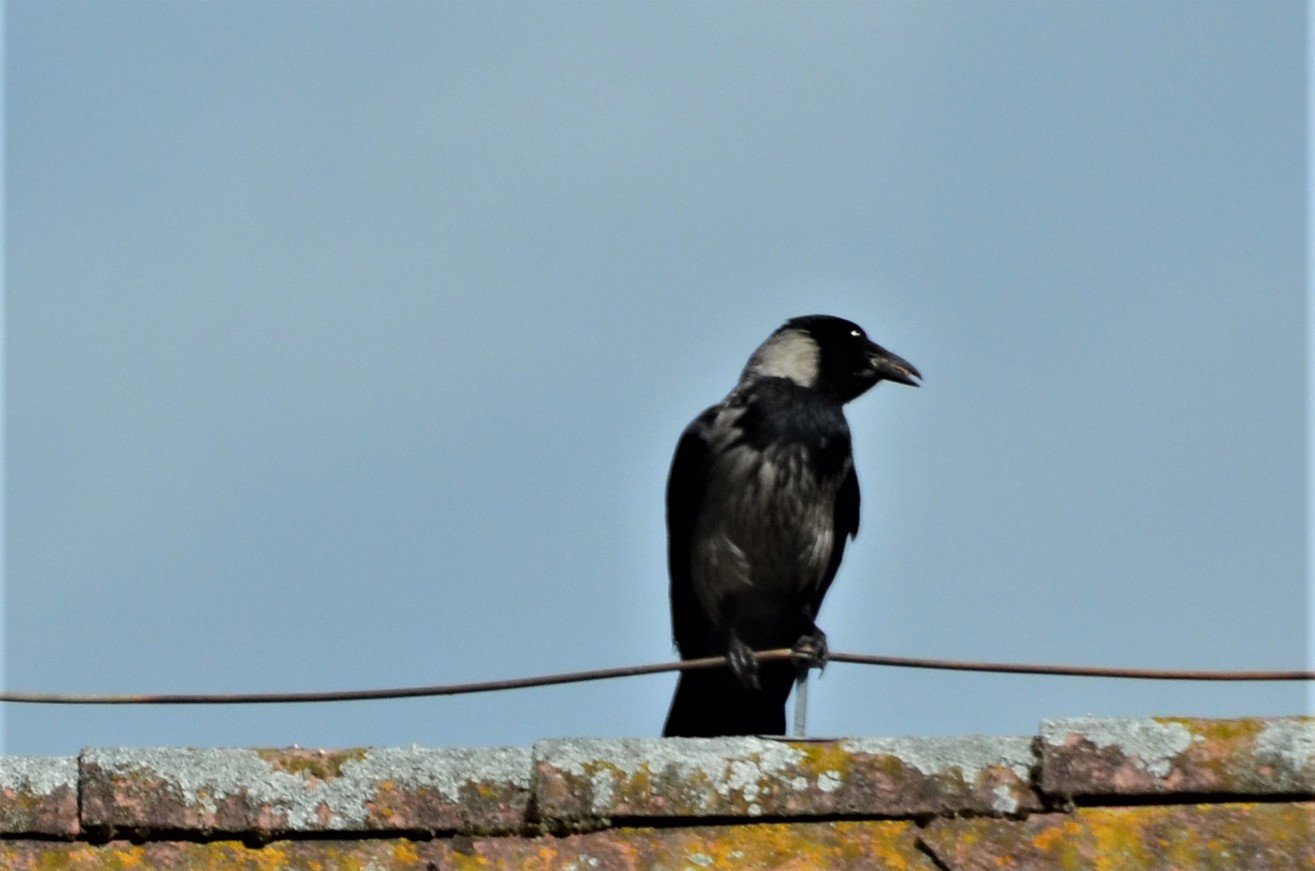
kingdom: Animalia
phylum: Chordata
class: Aves
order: Passeriformes
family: Corvidae
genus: Corvus
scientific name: Corvus
